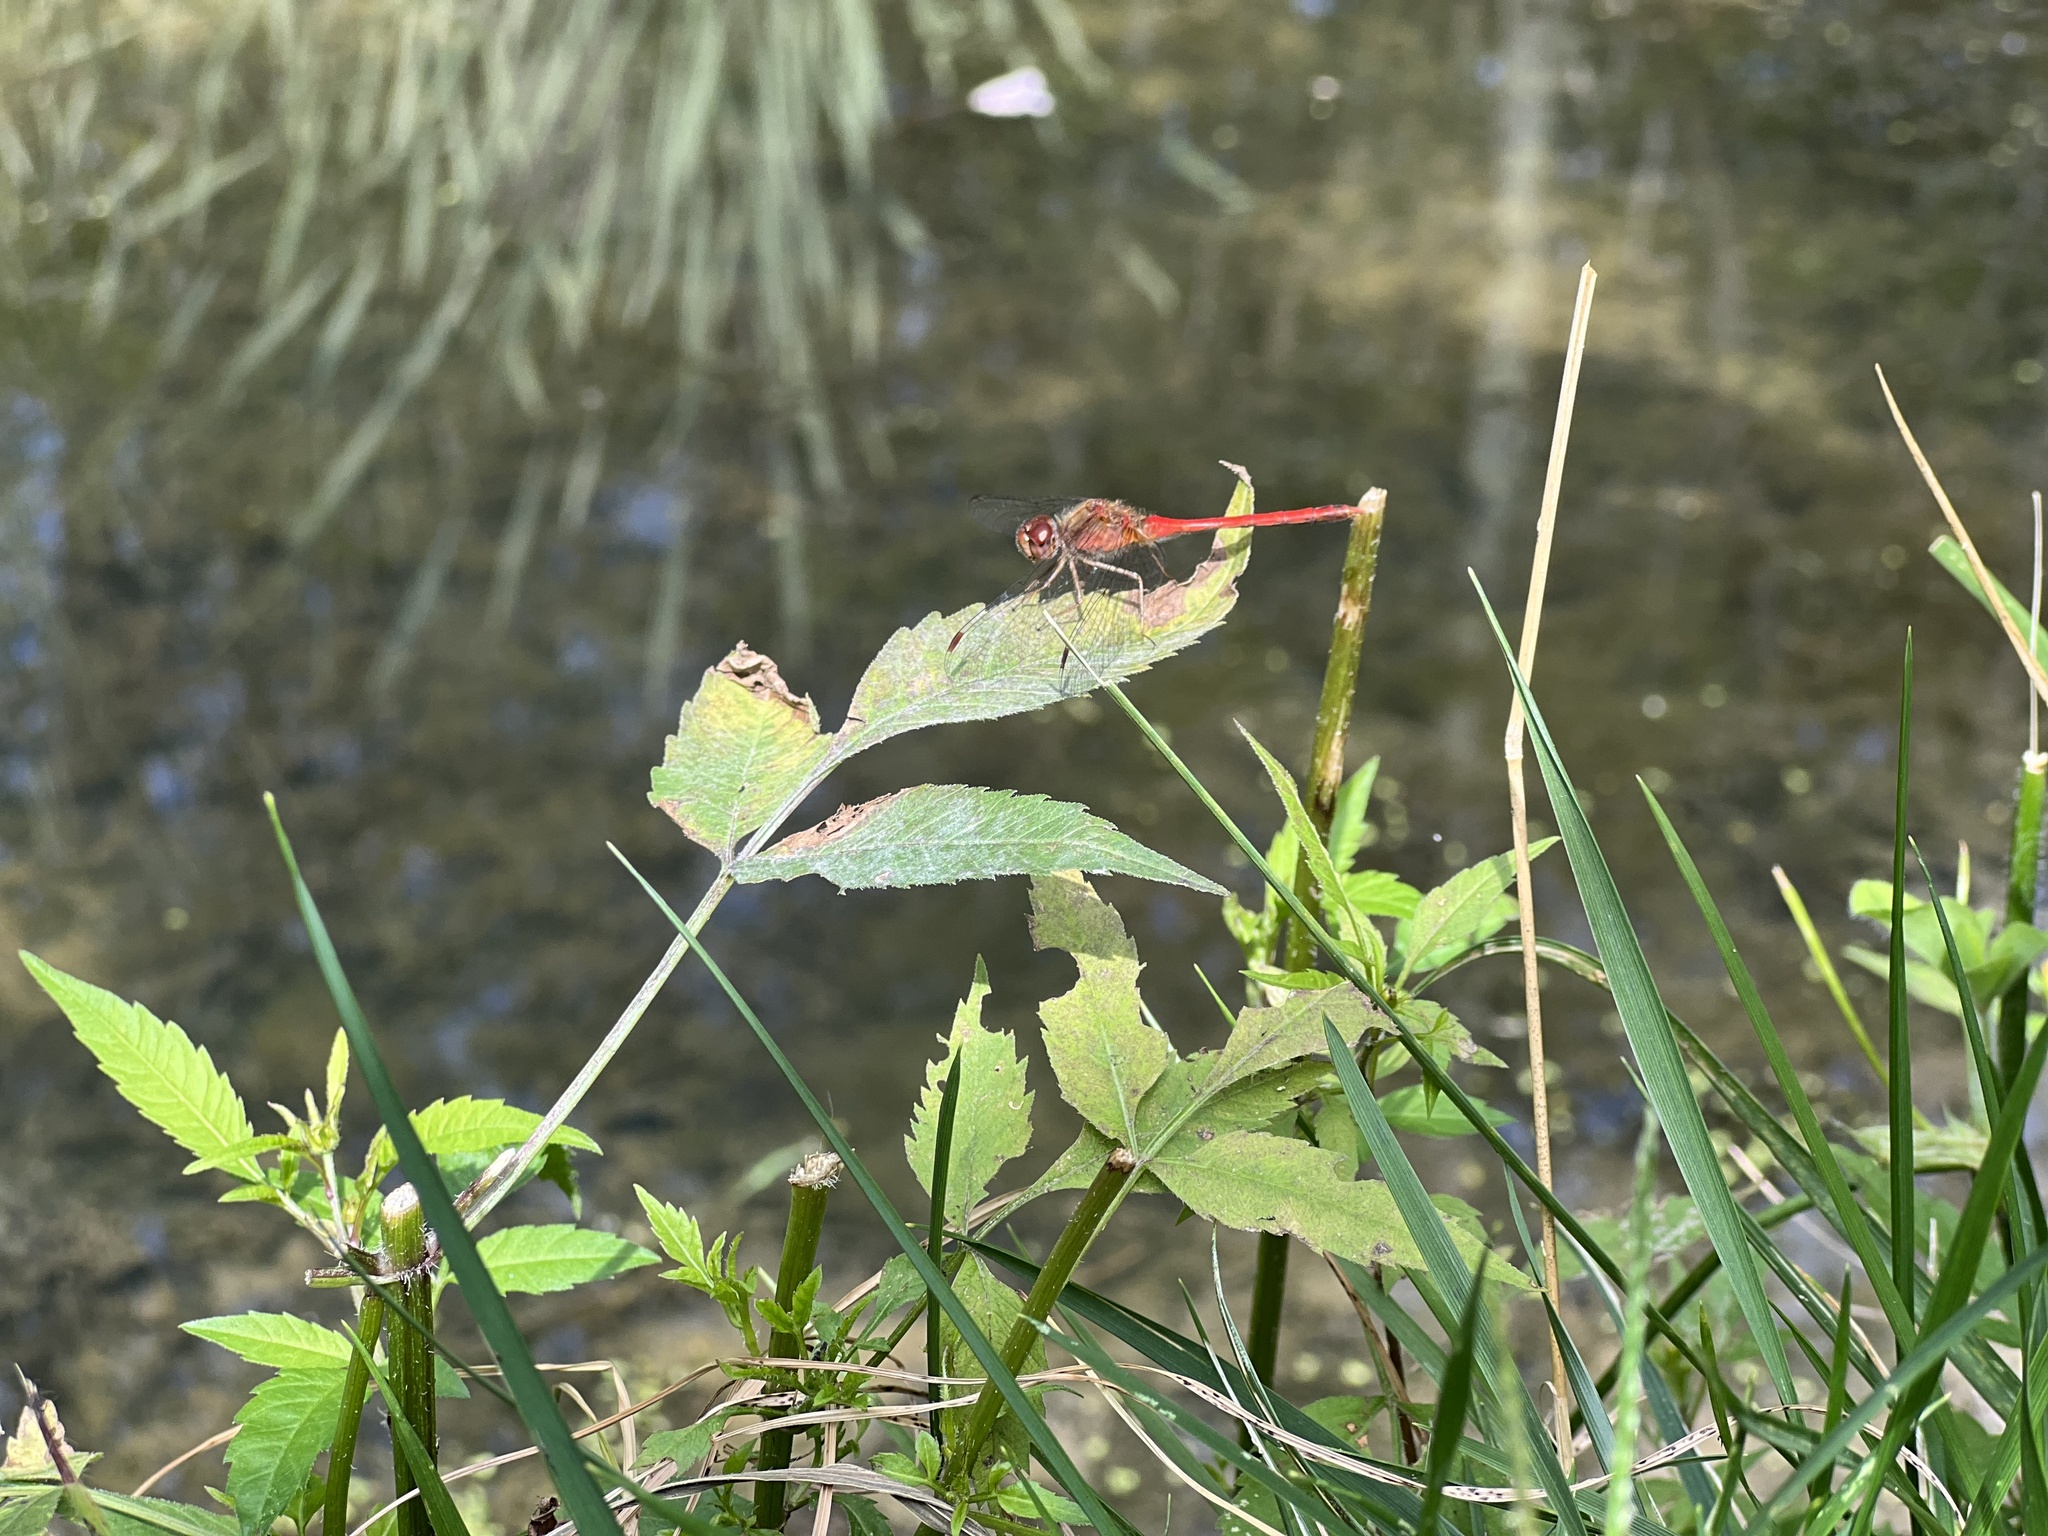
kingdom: Animalia
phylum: Arthropoda
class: Insecta
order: Odonata
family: Libellulidae
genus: Sympetrum
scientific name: Sympetrum vicinum
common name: Autumn meadowhawk
